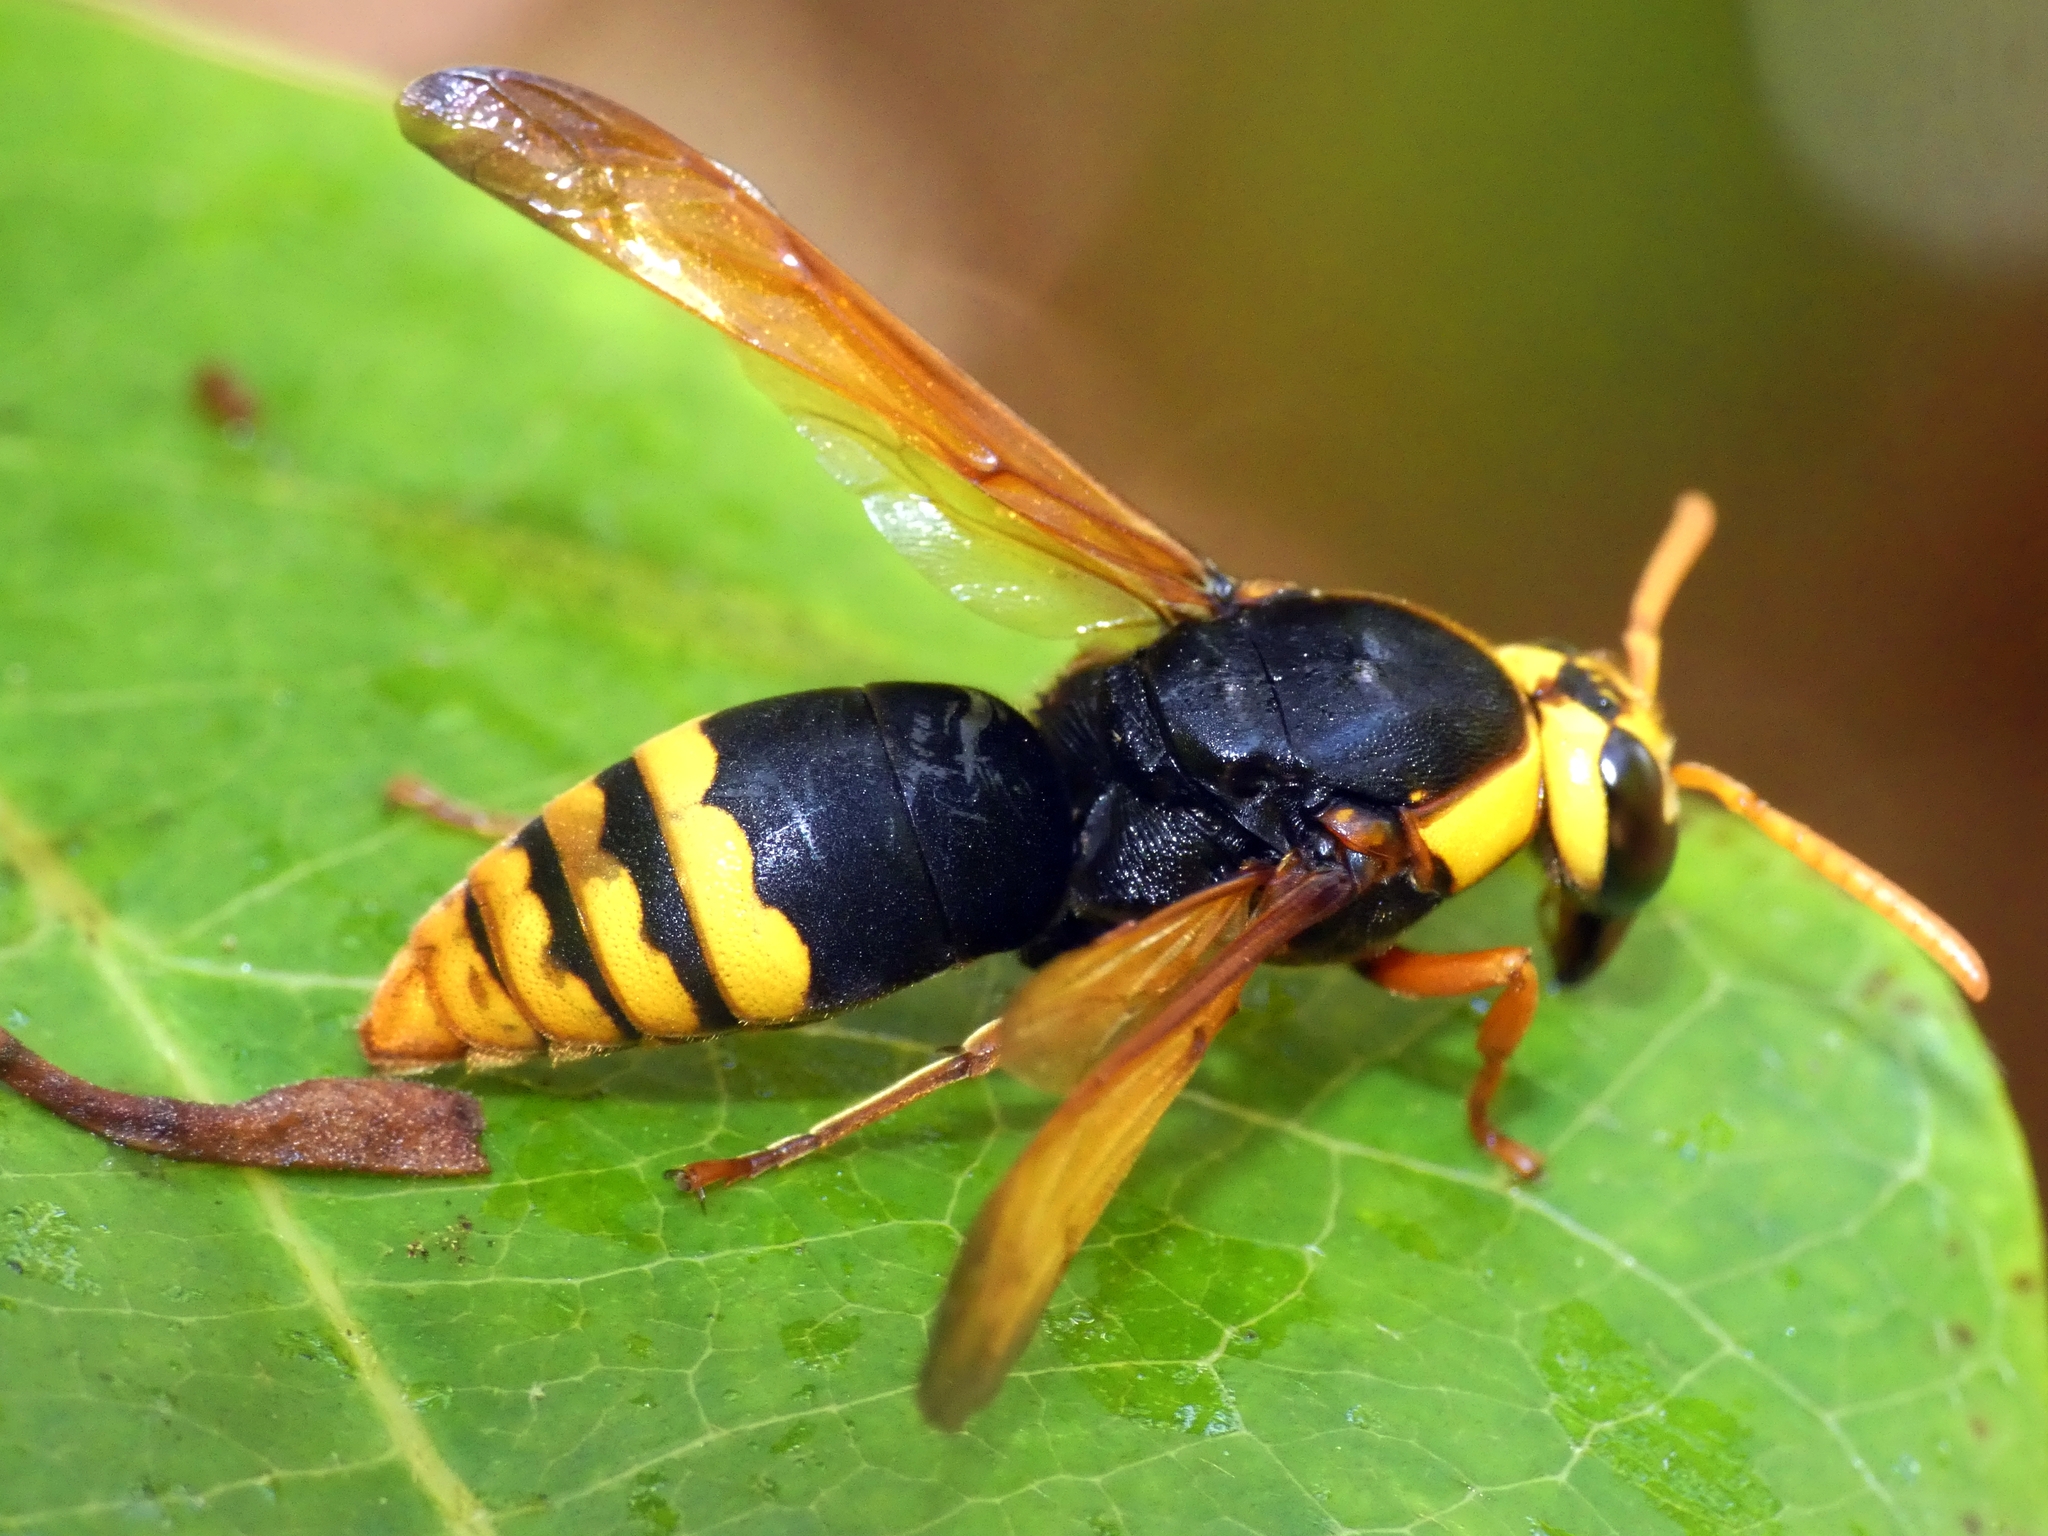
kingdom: Animalia
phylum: Arthropoda
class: Insecta
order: Hymenoptera
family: Eumenidae
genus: Rhynchium
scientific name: Rhynchium superbum
